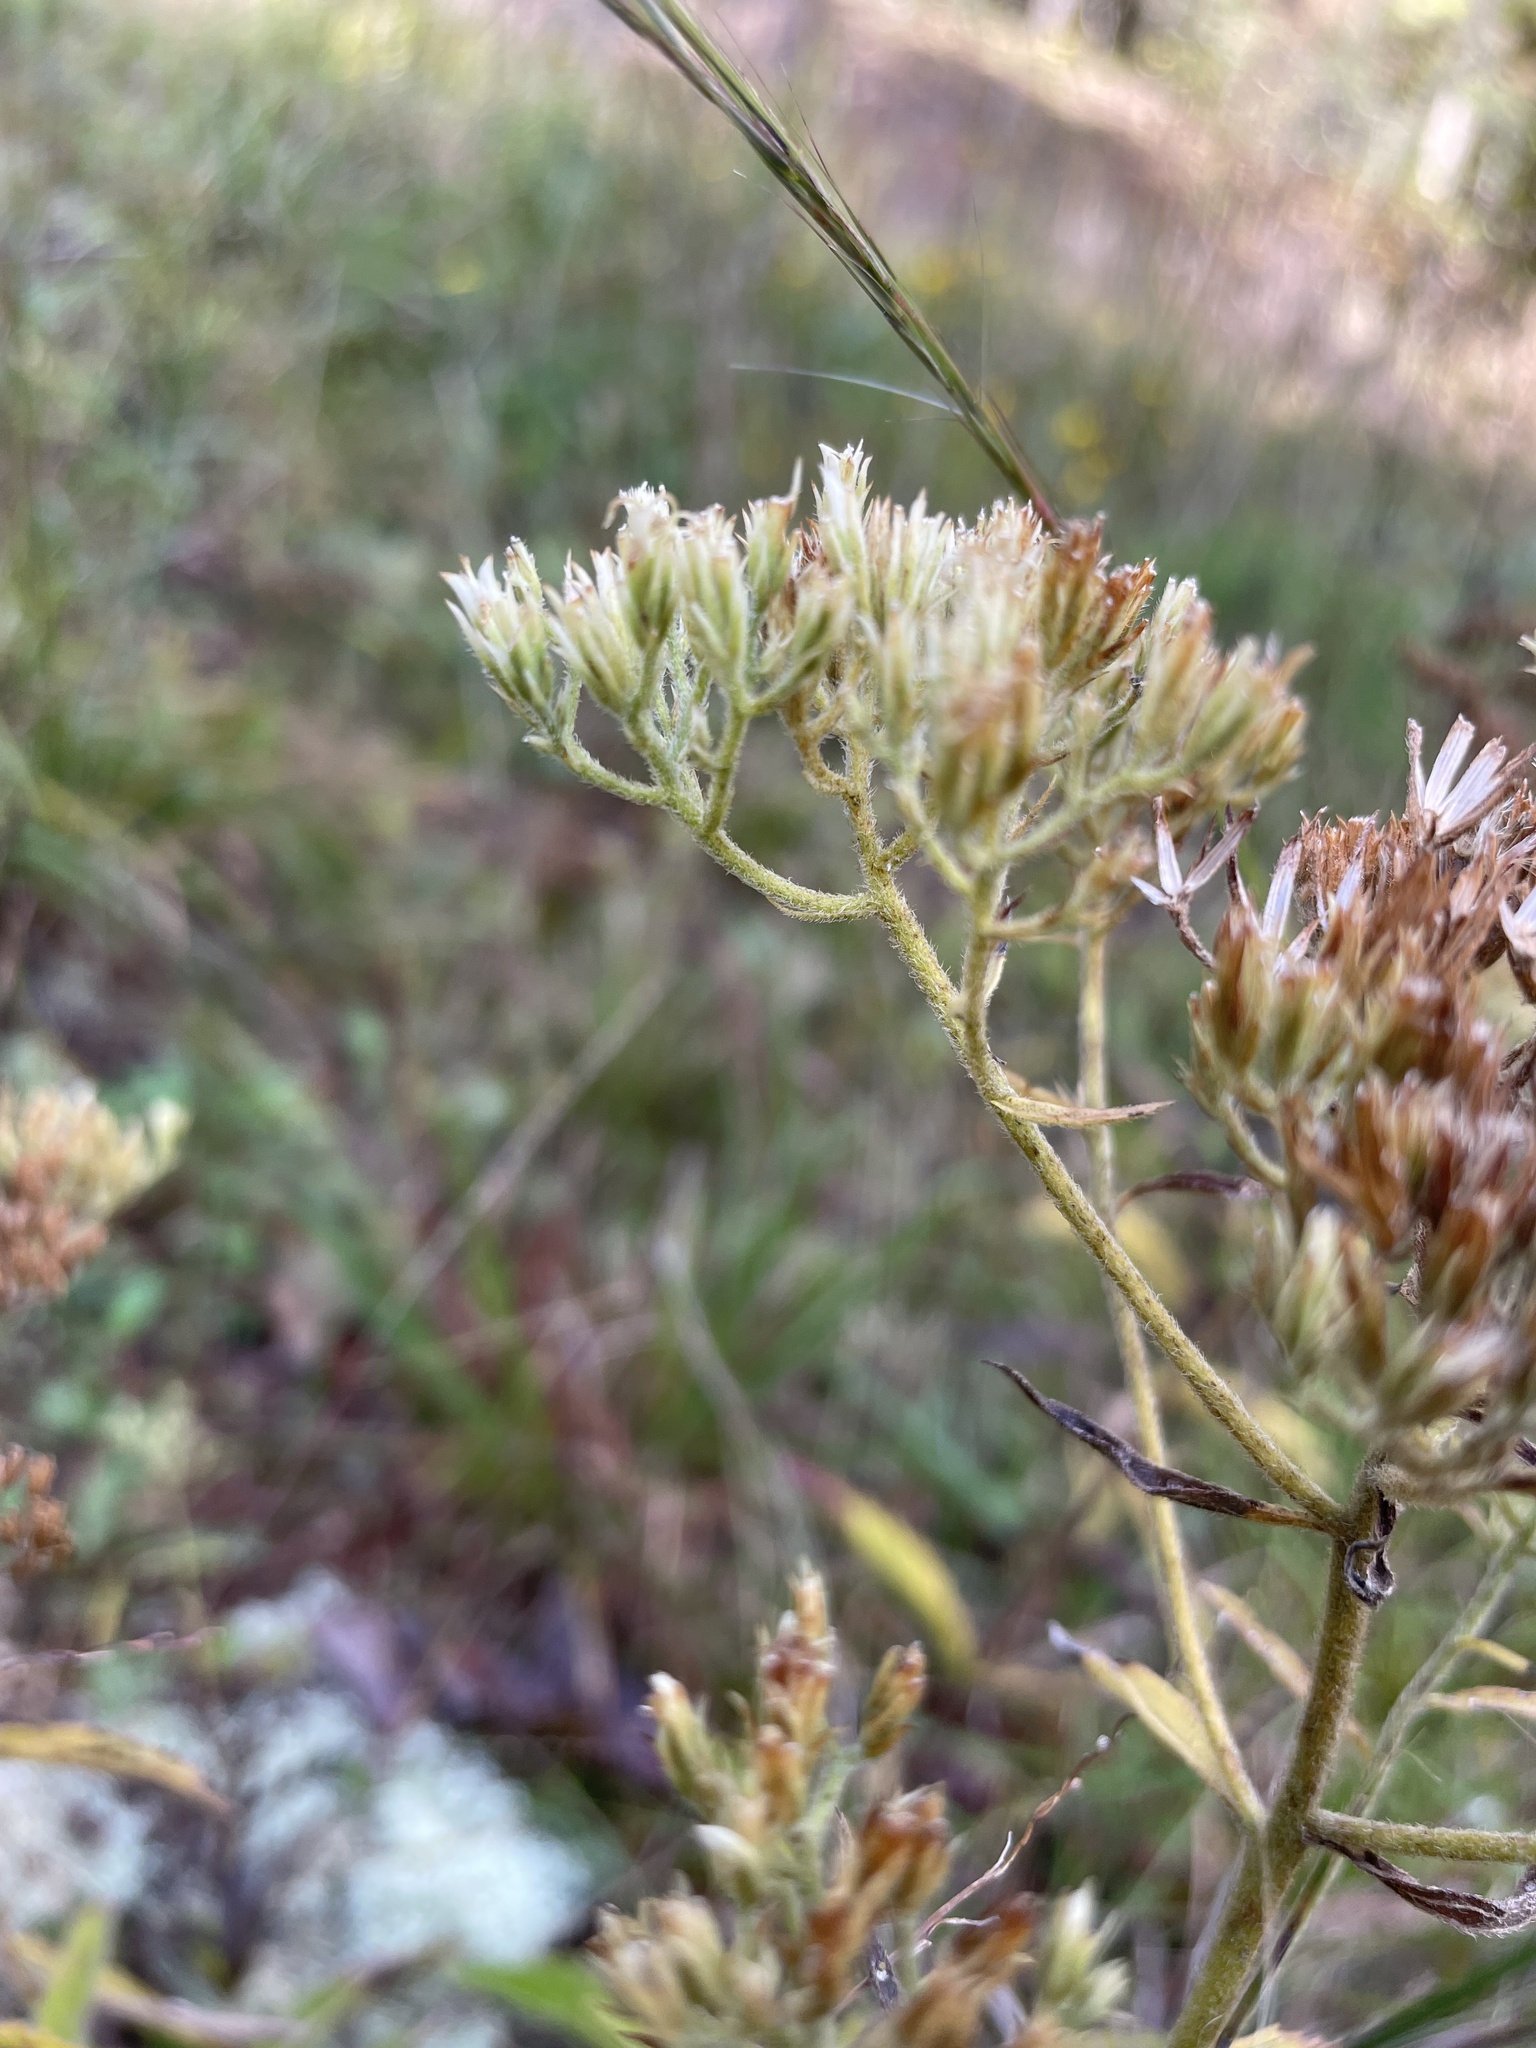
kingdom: Plantae
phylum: Tracheophyta
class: Magnoliopsida
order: Asterales
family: Asteraceae
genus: Eupatorium
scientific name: Eupatorium album
